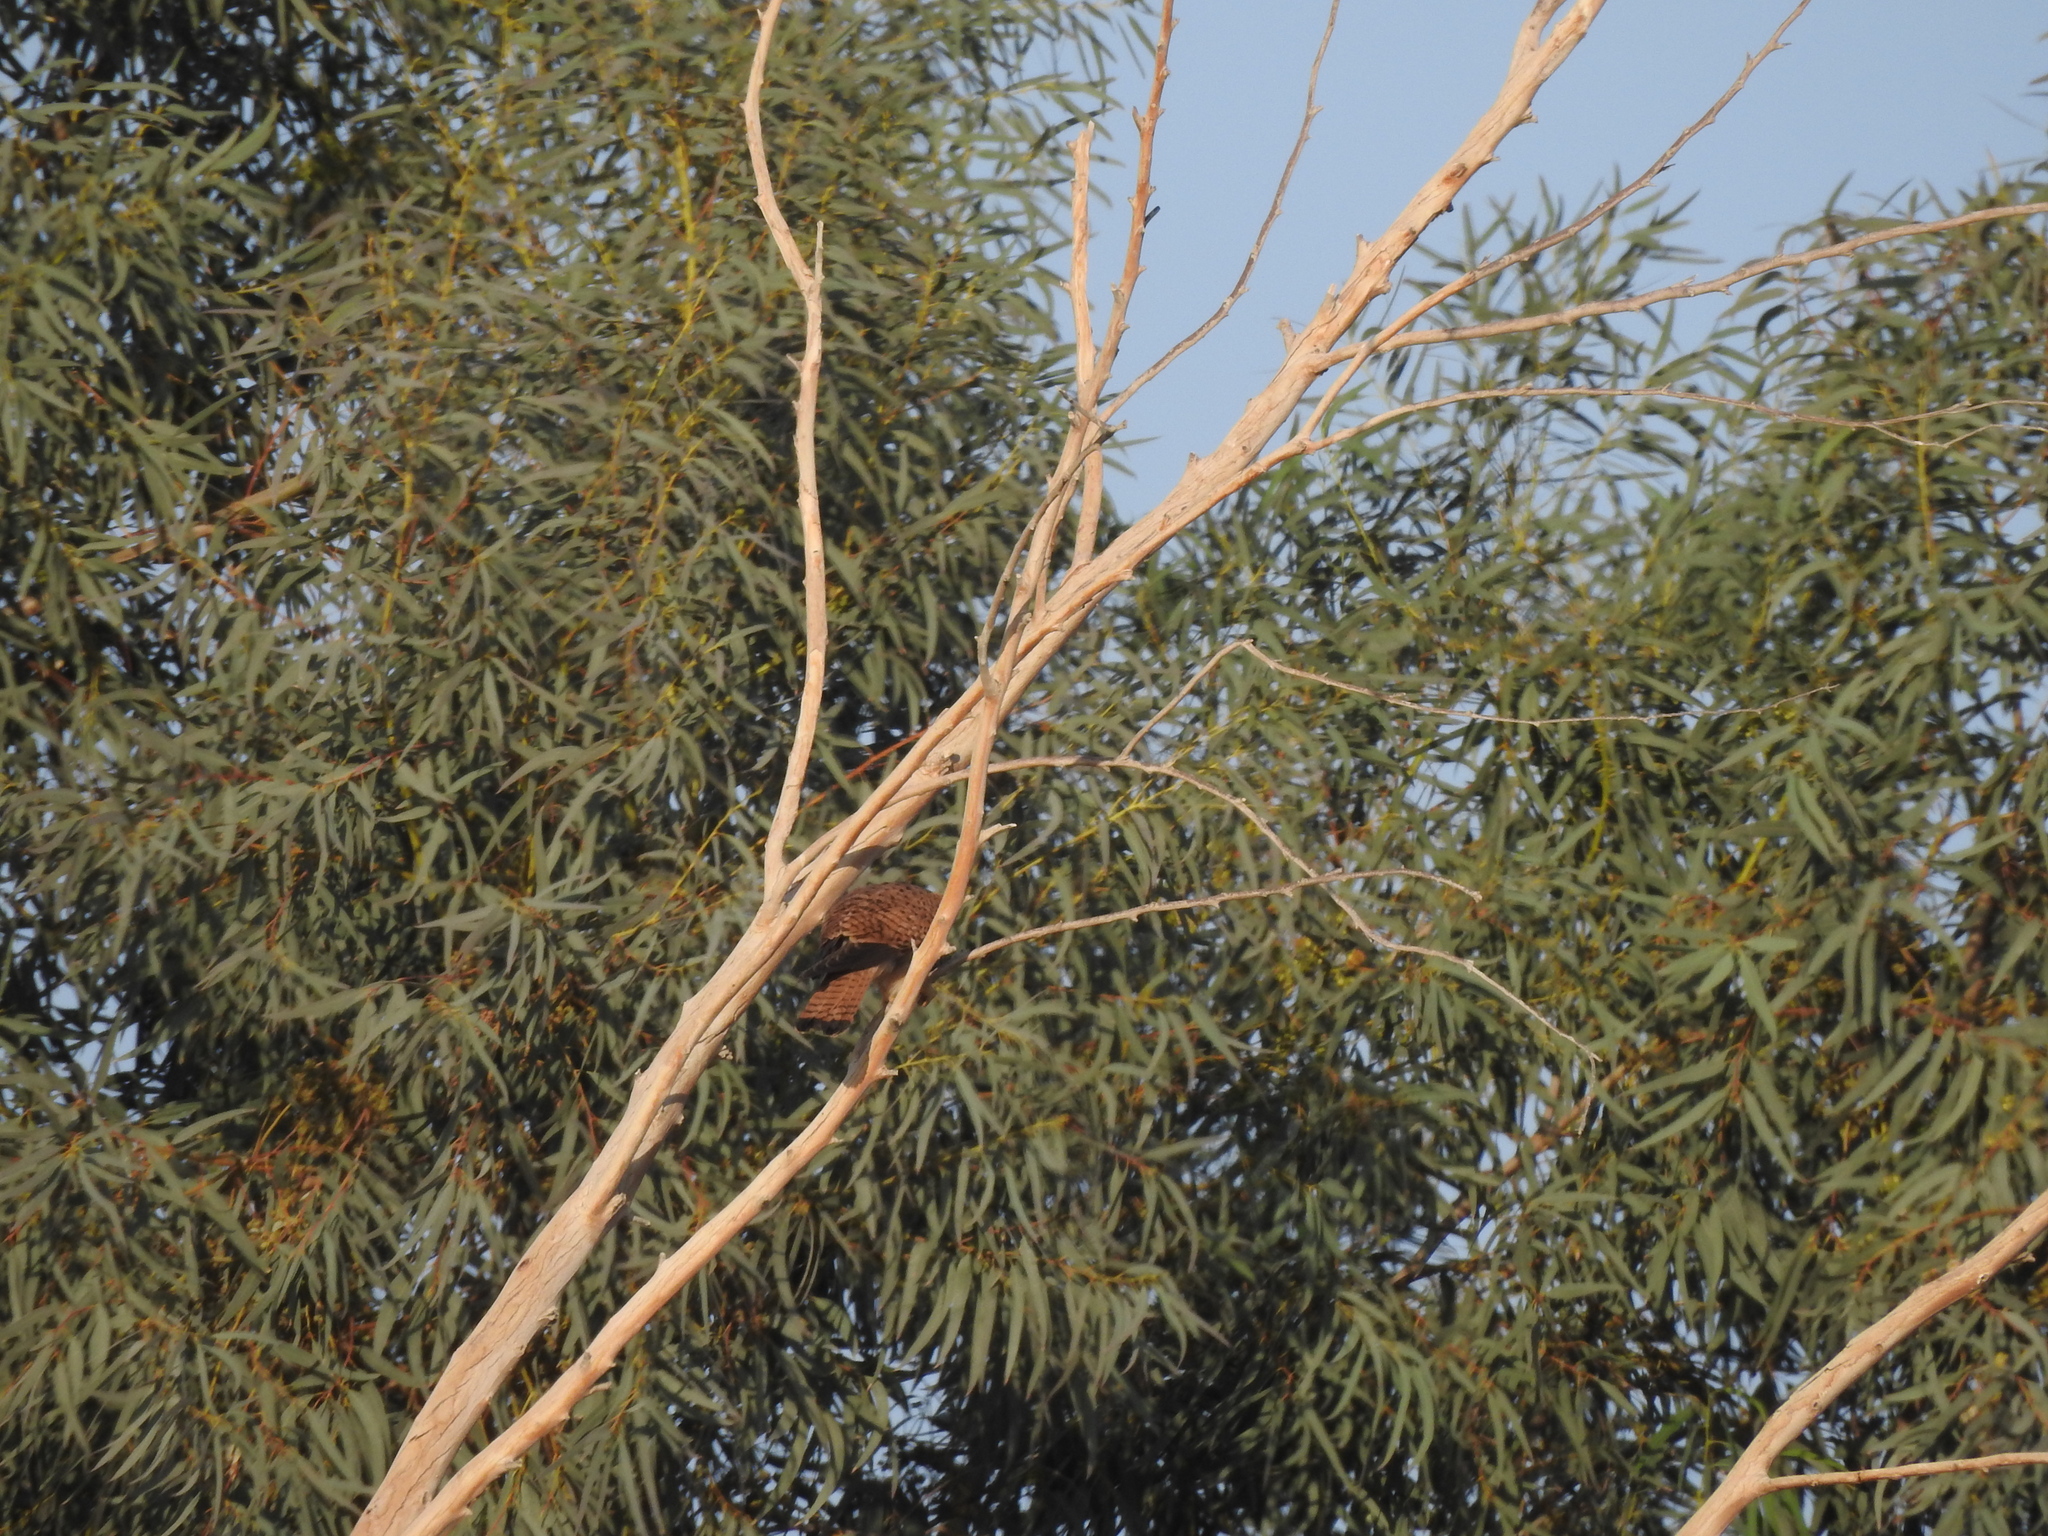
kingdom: Animalia
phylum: Chordata
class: Aves
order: Falconiformes
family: Falconidae
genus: Falco
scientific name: Falco tinnunculus
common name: Common kestrel
